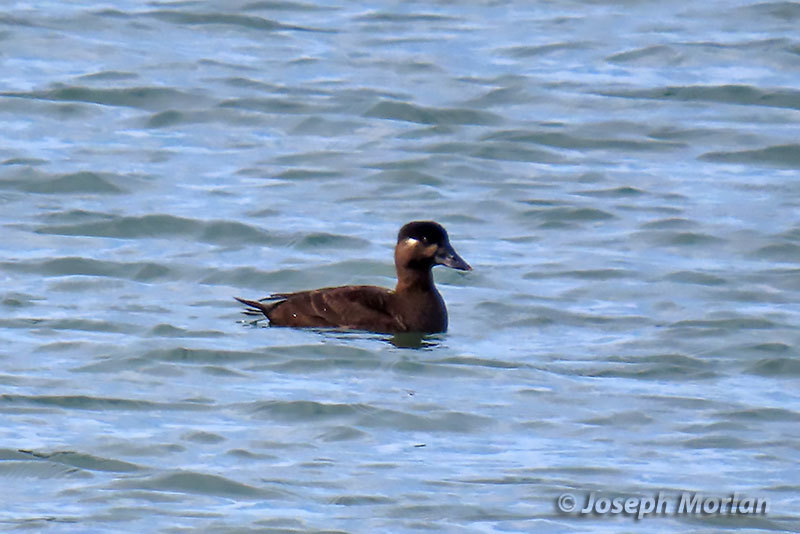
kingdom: Animalia
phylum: Chordata
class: Aves
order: Anseriformes
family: Anatidae
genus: Melanitta
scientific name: Melanitta perspicillata
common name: Surf scoter
